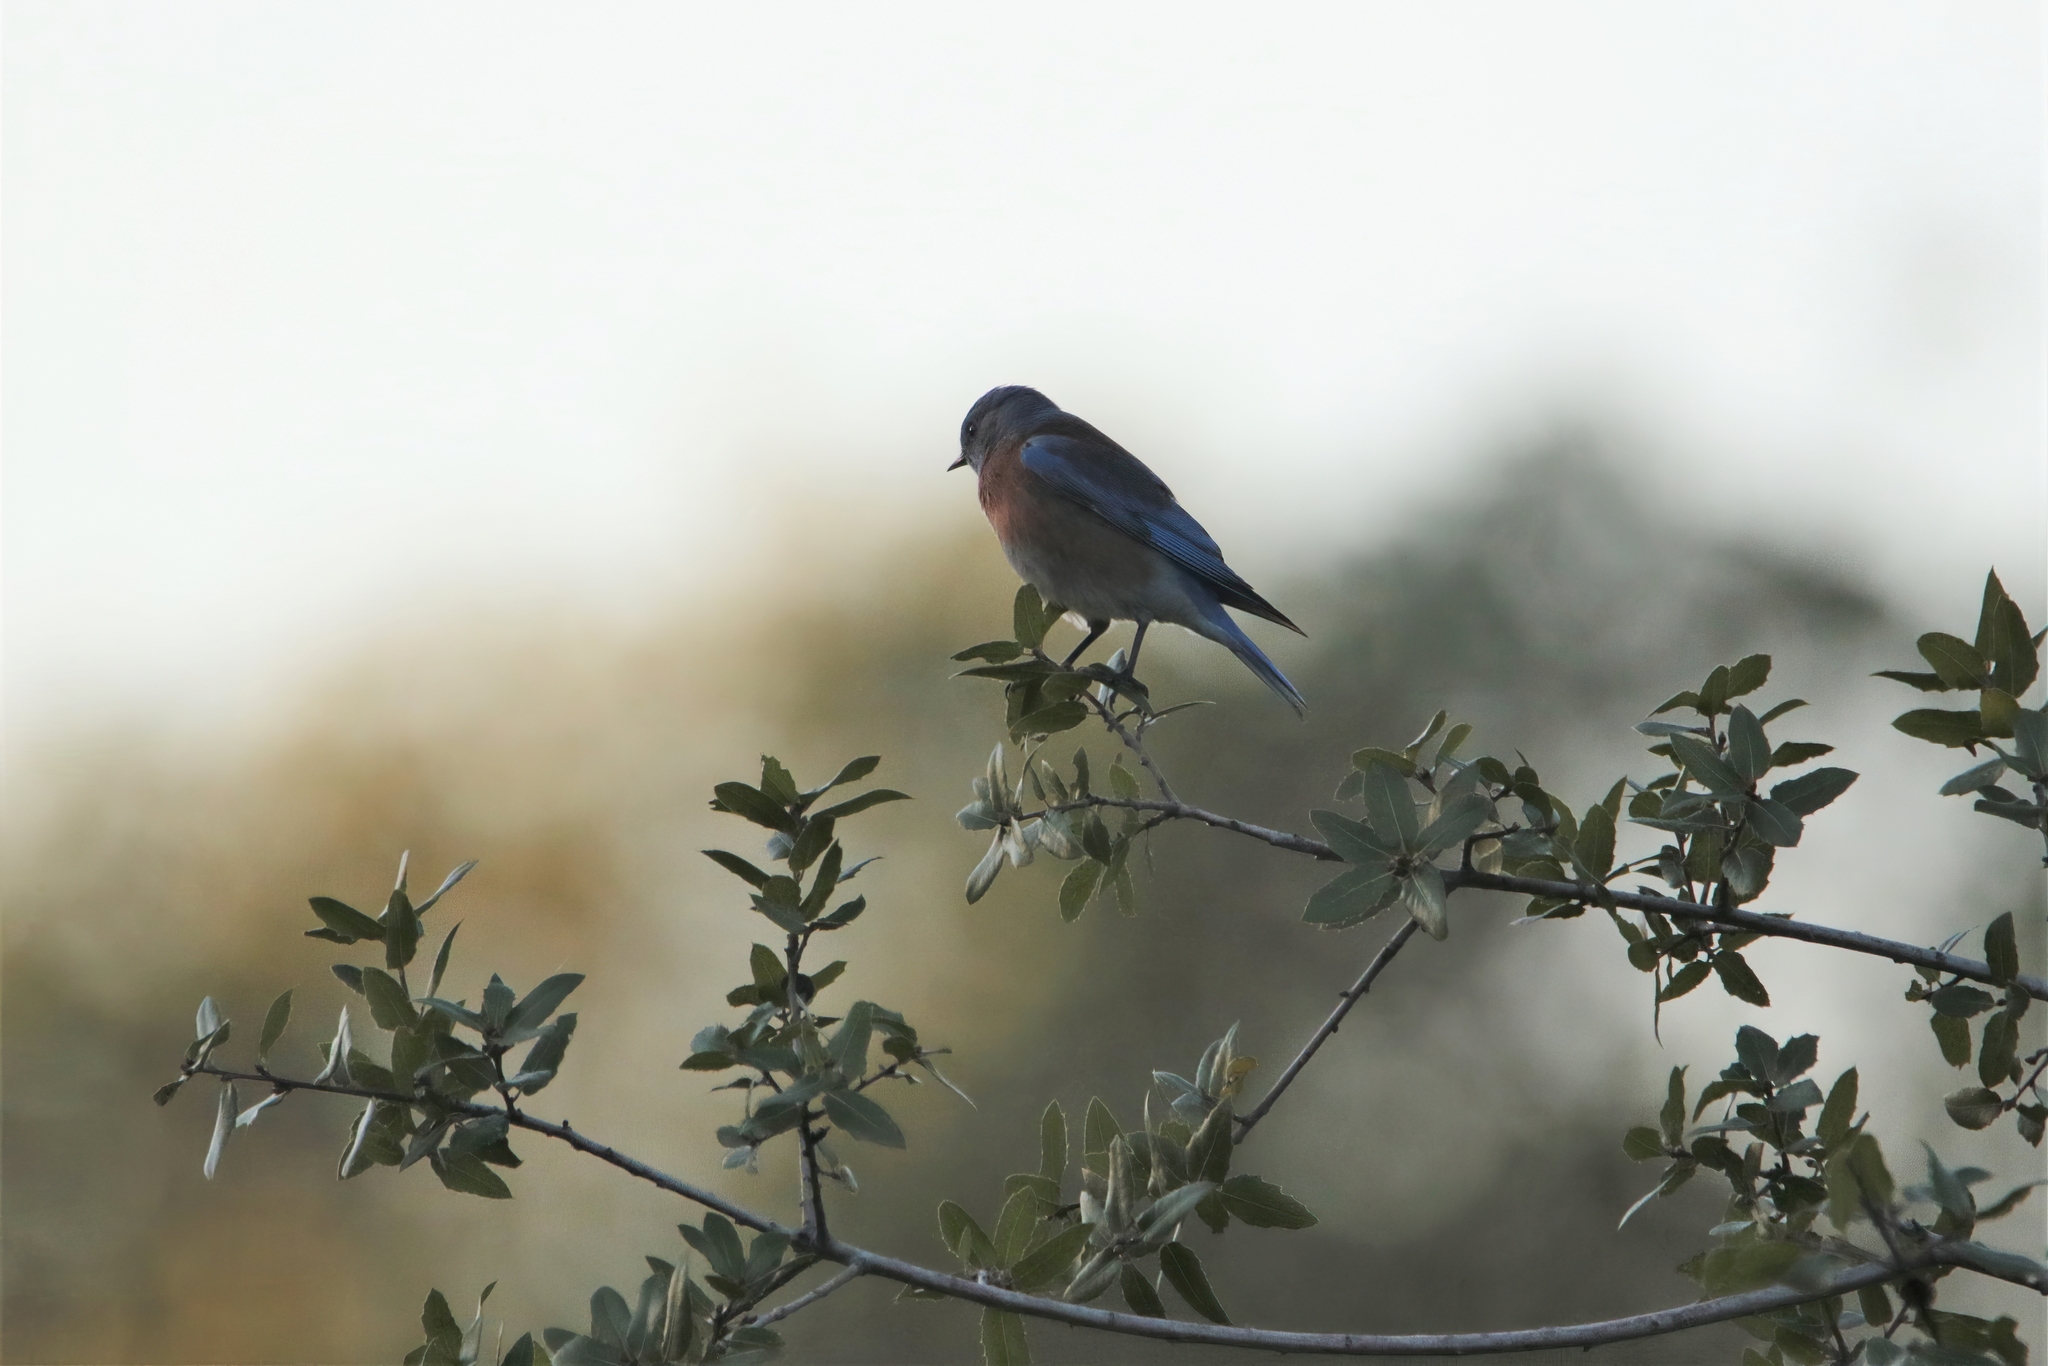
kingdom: Animalia
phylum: Chordata
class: Aves
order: Passeriformes
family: Turdidae
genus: Sialia
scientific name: Sialia mexicana
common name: Western bluebird
